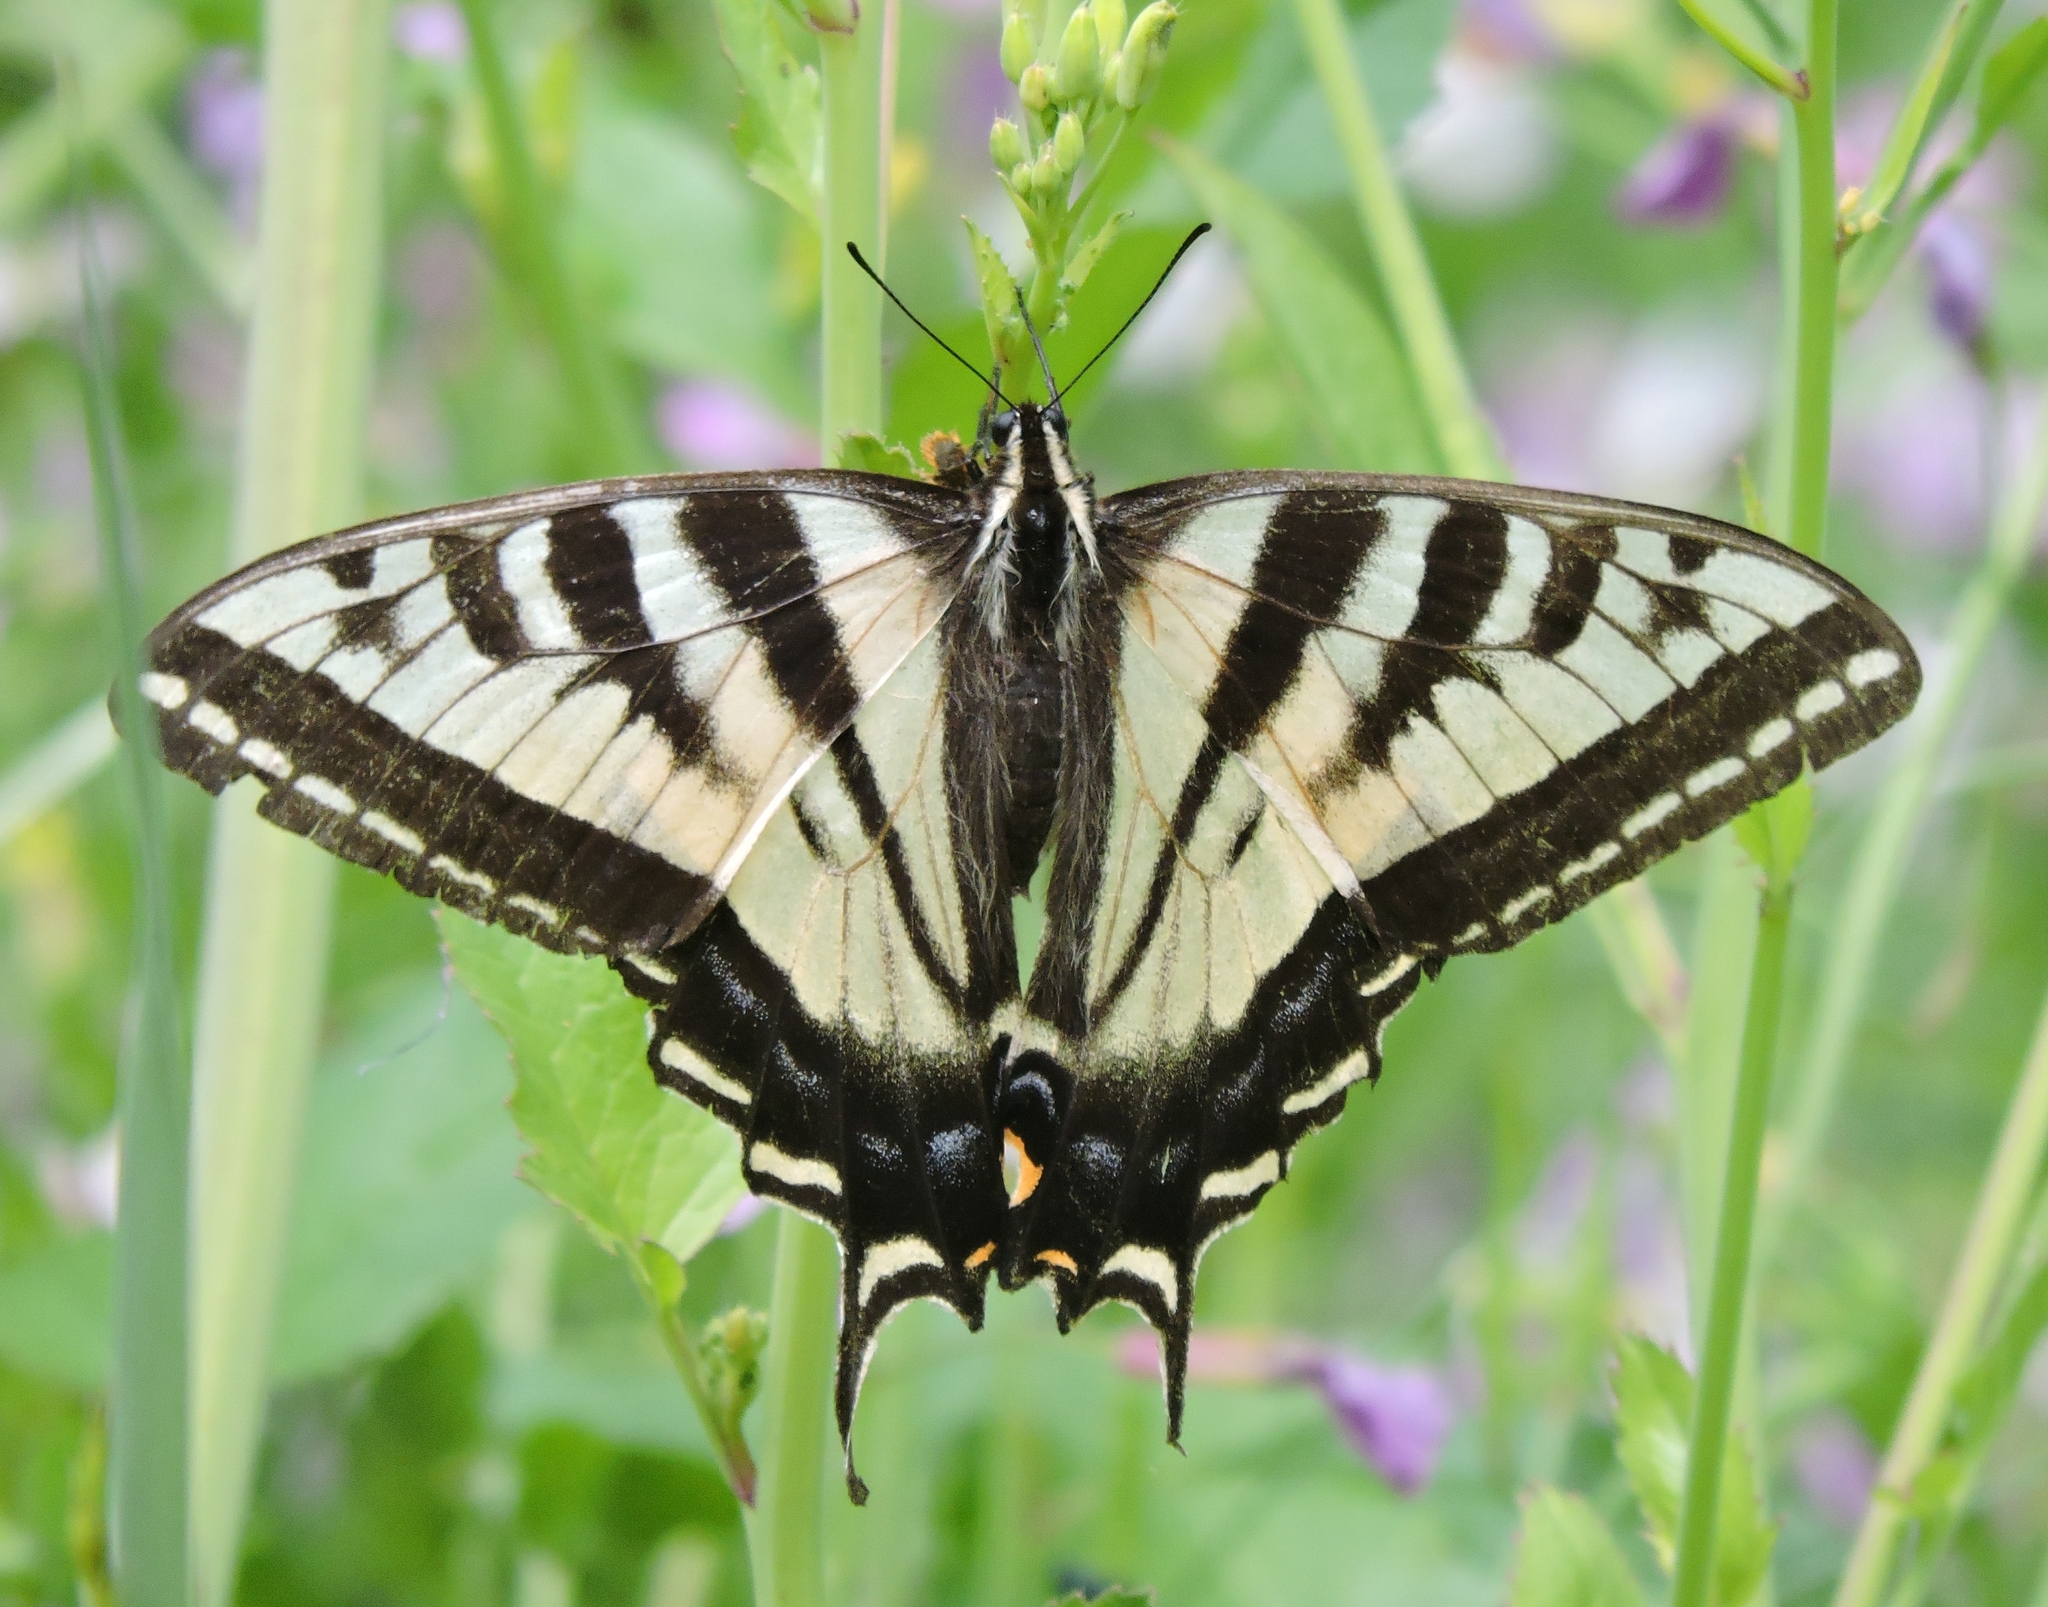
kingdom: Animalia
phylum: Arthropoda
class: Insecta
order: Lepidoptera
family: Papilionidae
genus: Papilio
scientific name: Papilio rutulus
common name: Western tiger swallowtail
